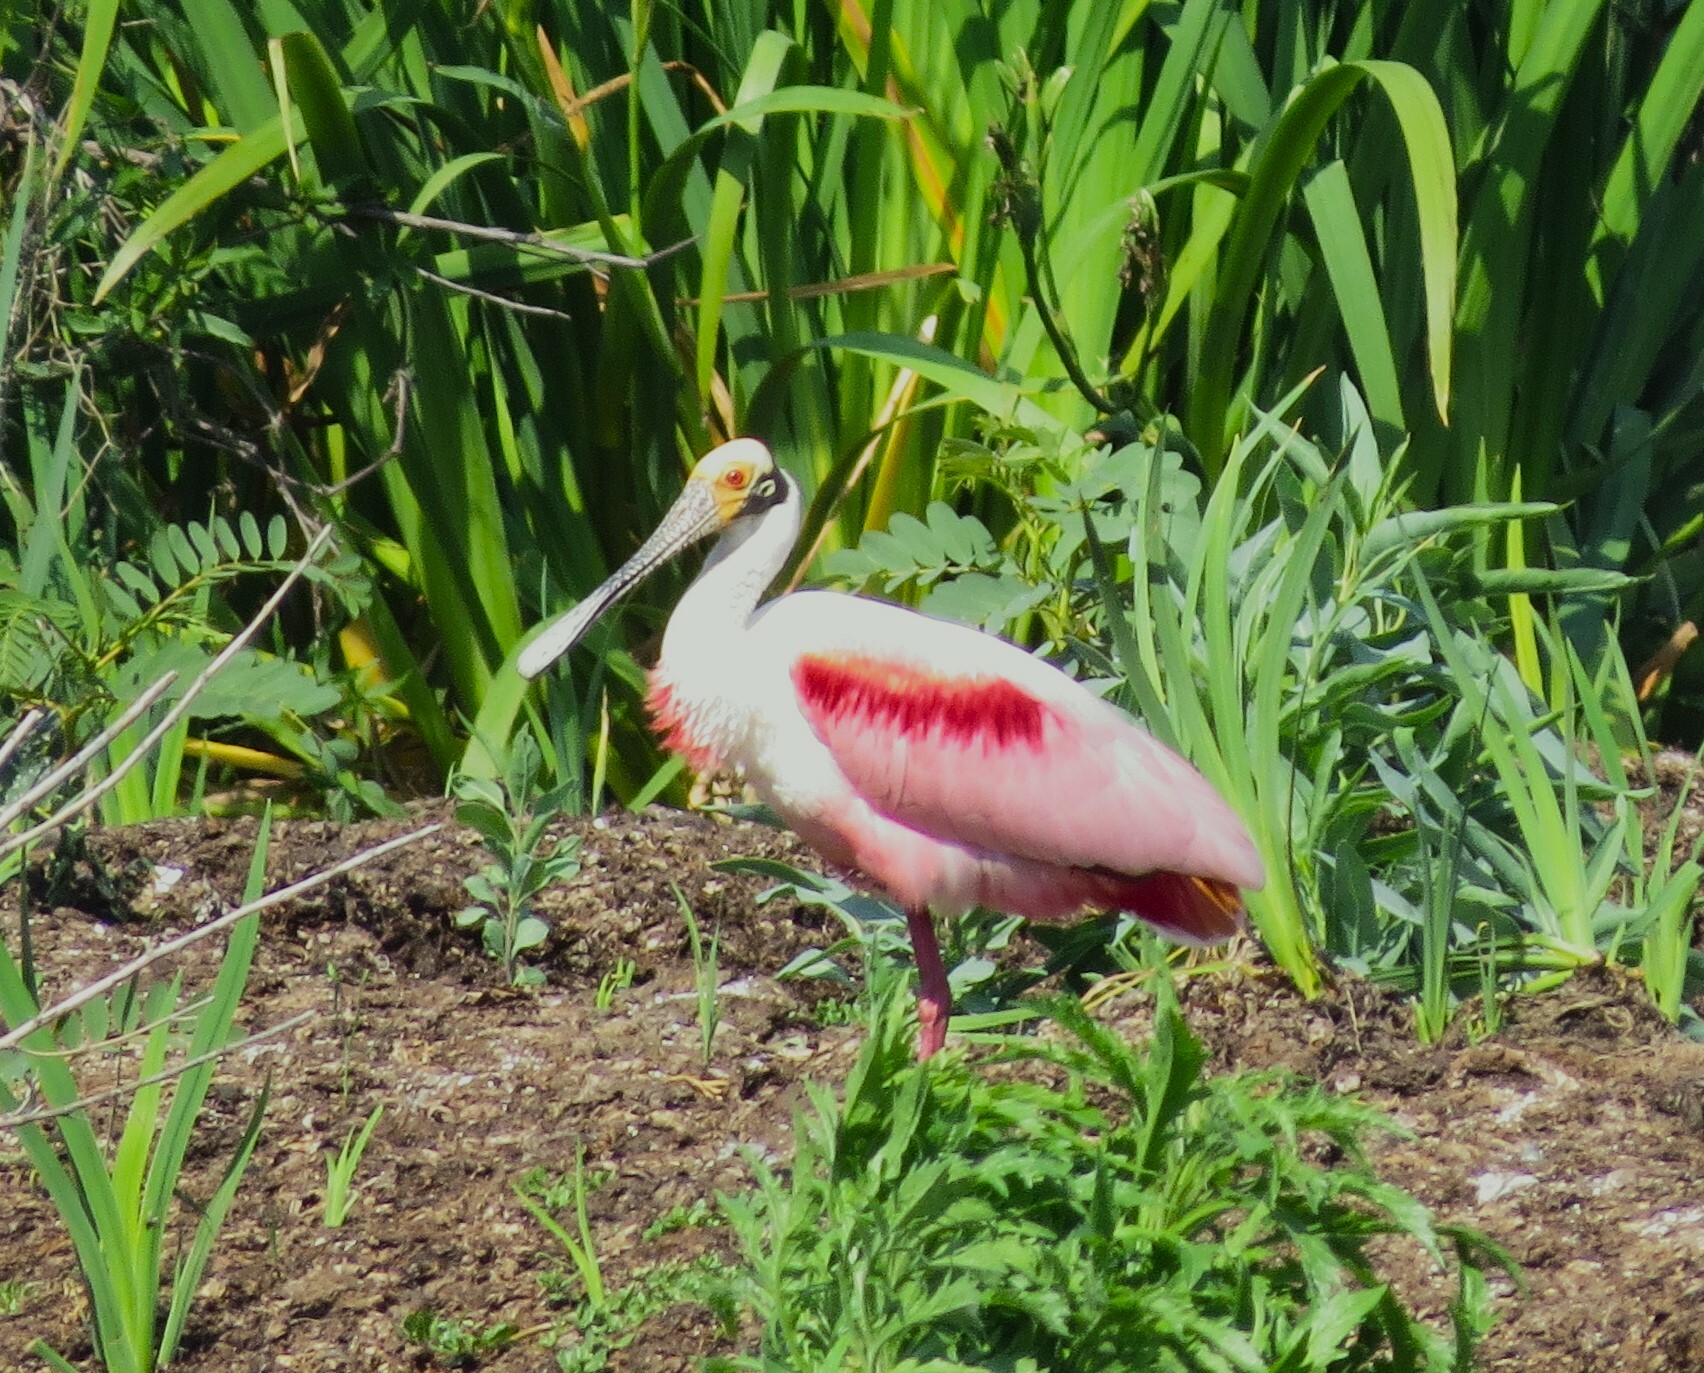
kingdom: Animalia
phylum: Chordata
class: Aves
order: Pelecaniformes
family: Threskiornithidae
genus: Platalea
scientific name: Platalea ajaja
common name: Roseate spoonbill
